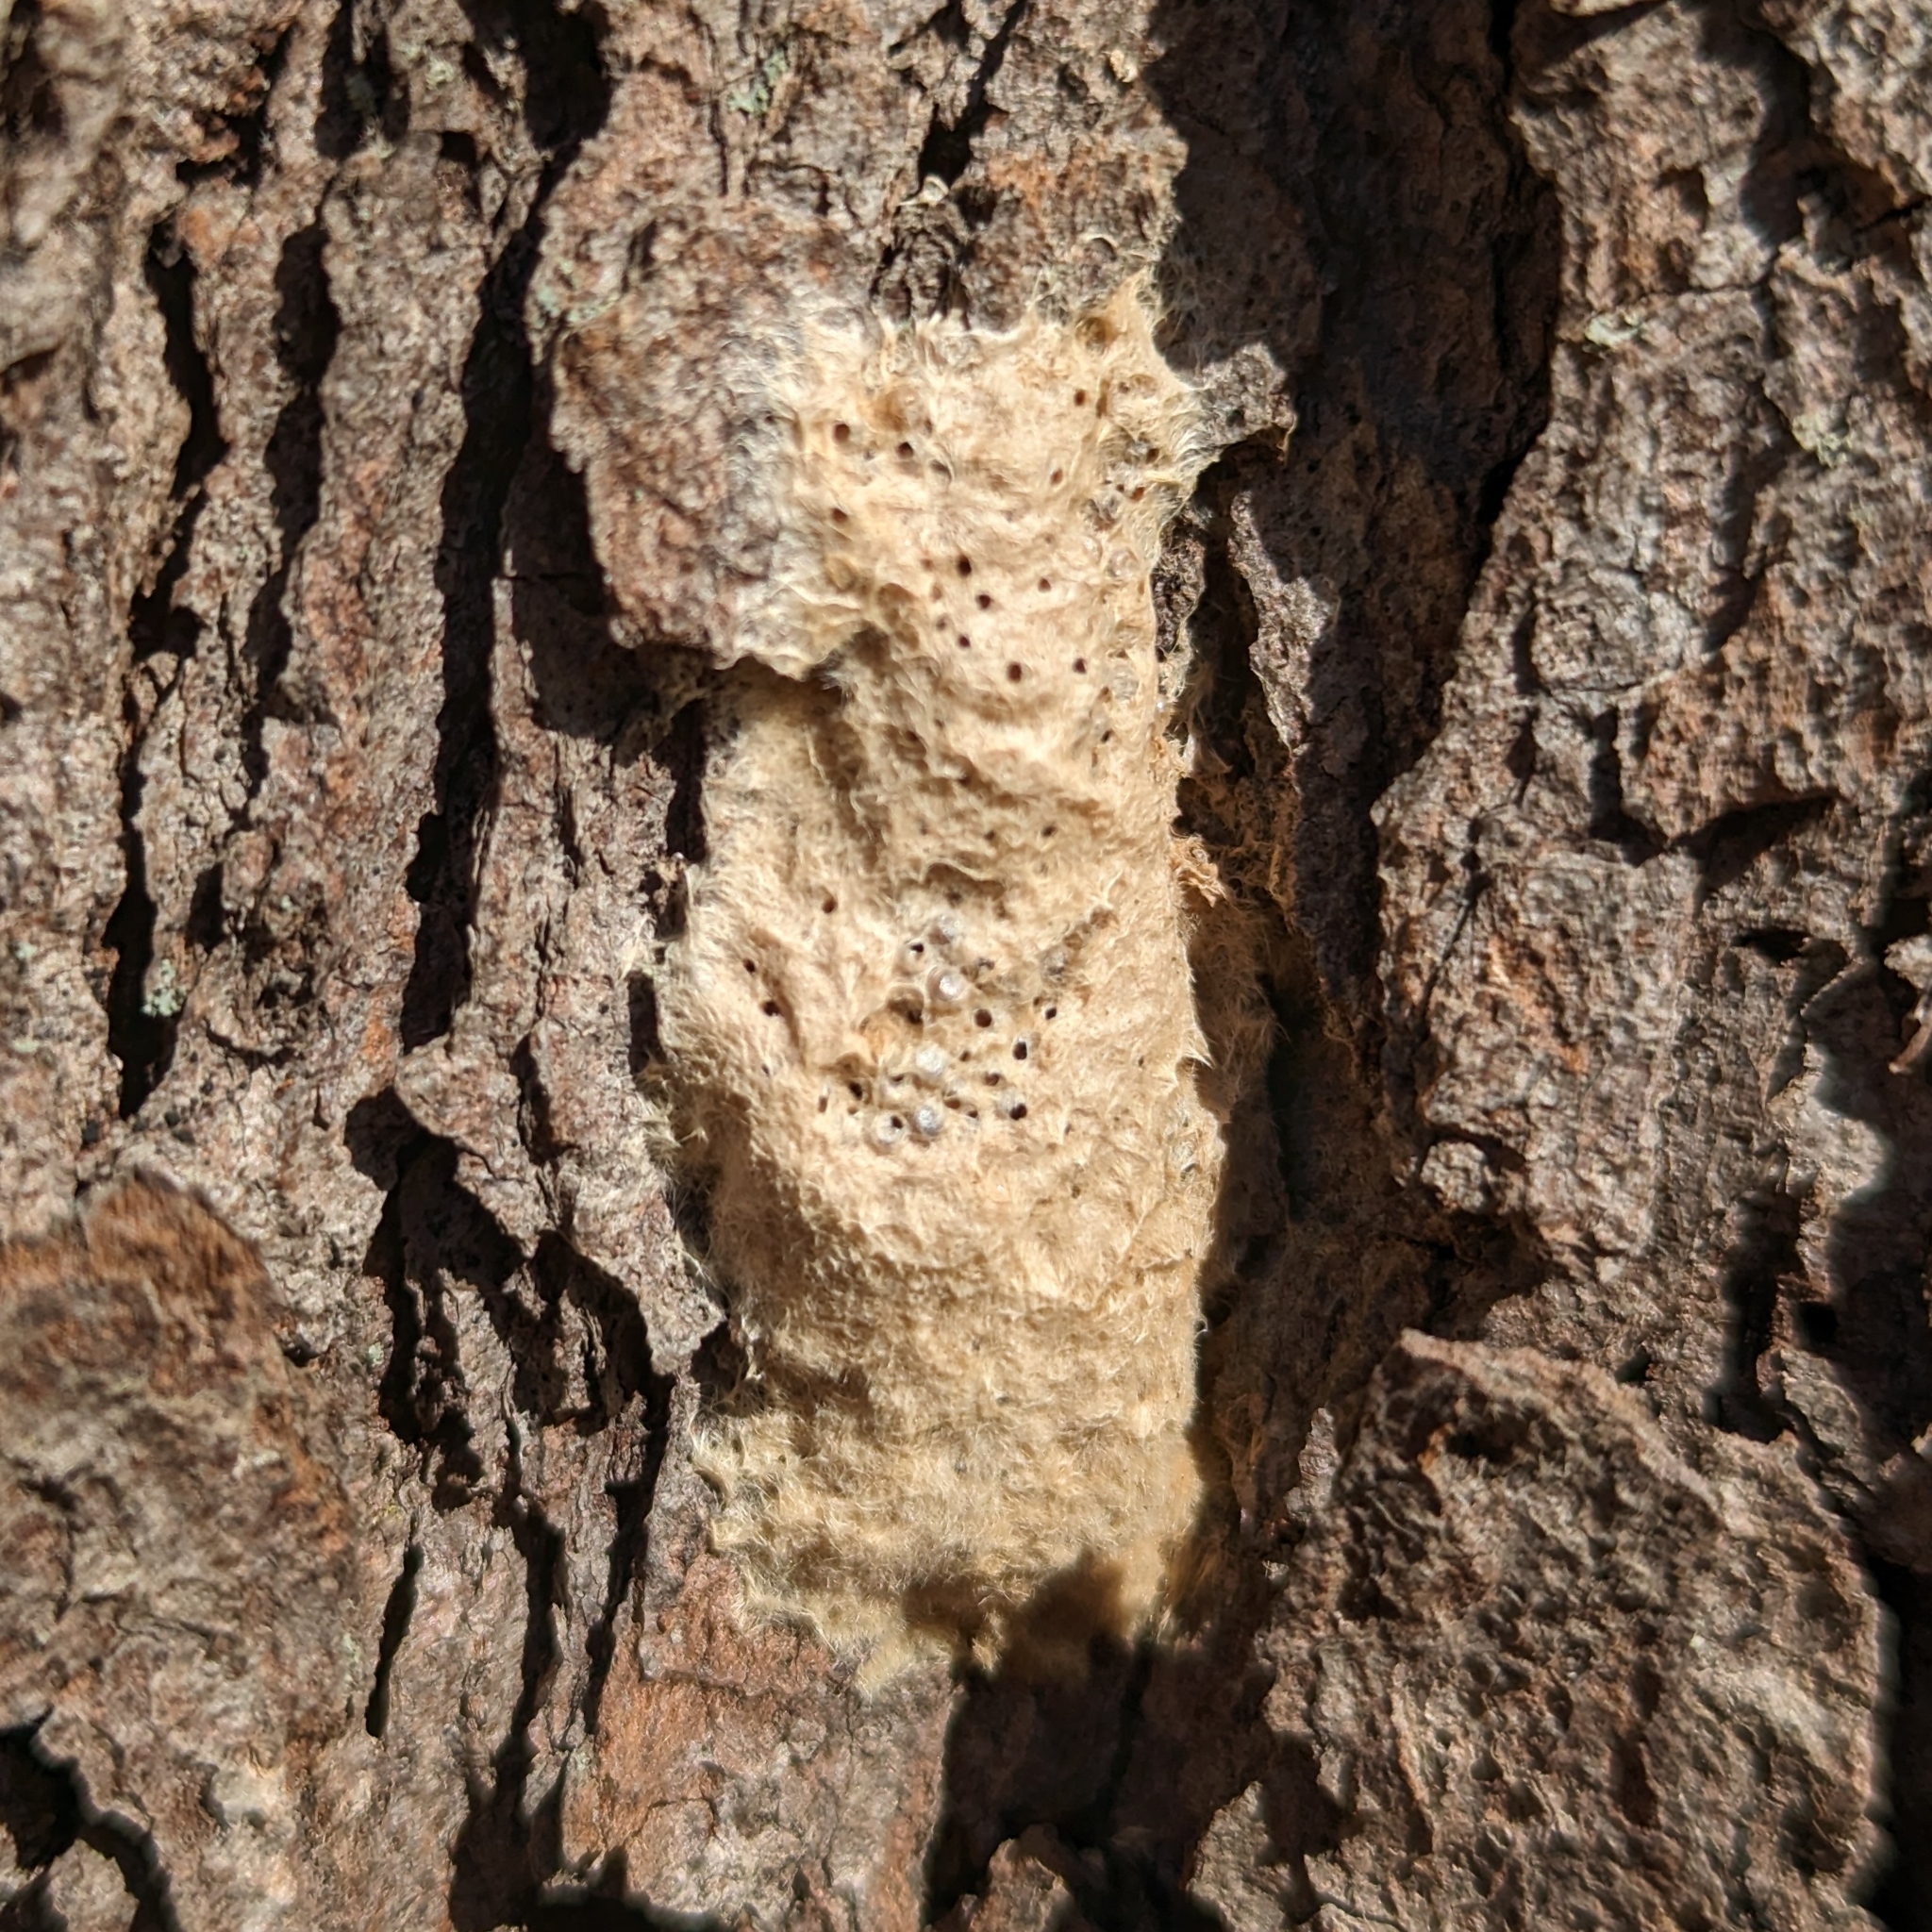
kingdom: Animalia
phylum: Arthropoda
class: Insecta
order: Lepidoptera
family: Erebidae
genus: Lymantria
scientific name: Lymantria dispar
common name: Gypsy moth
